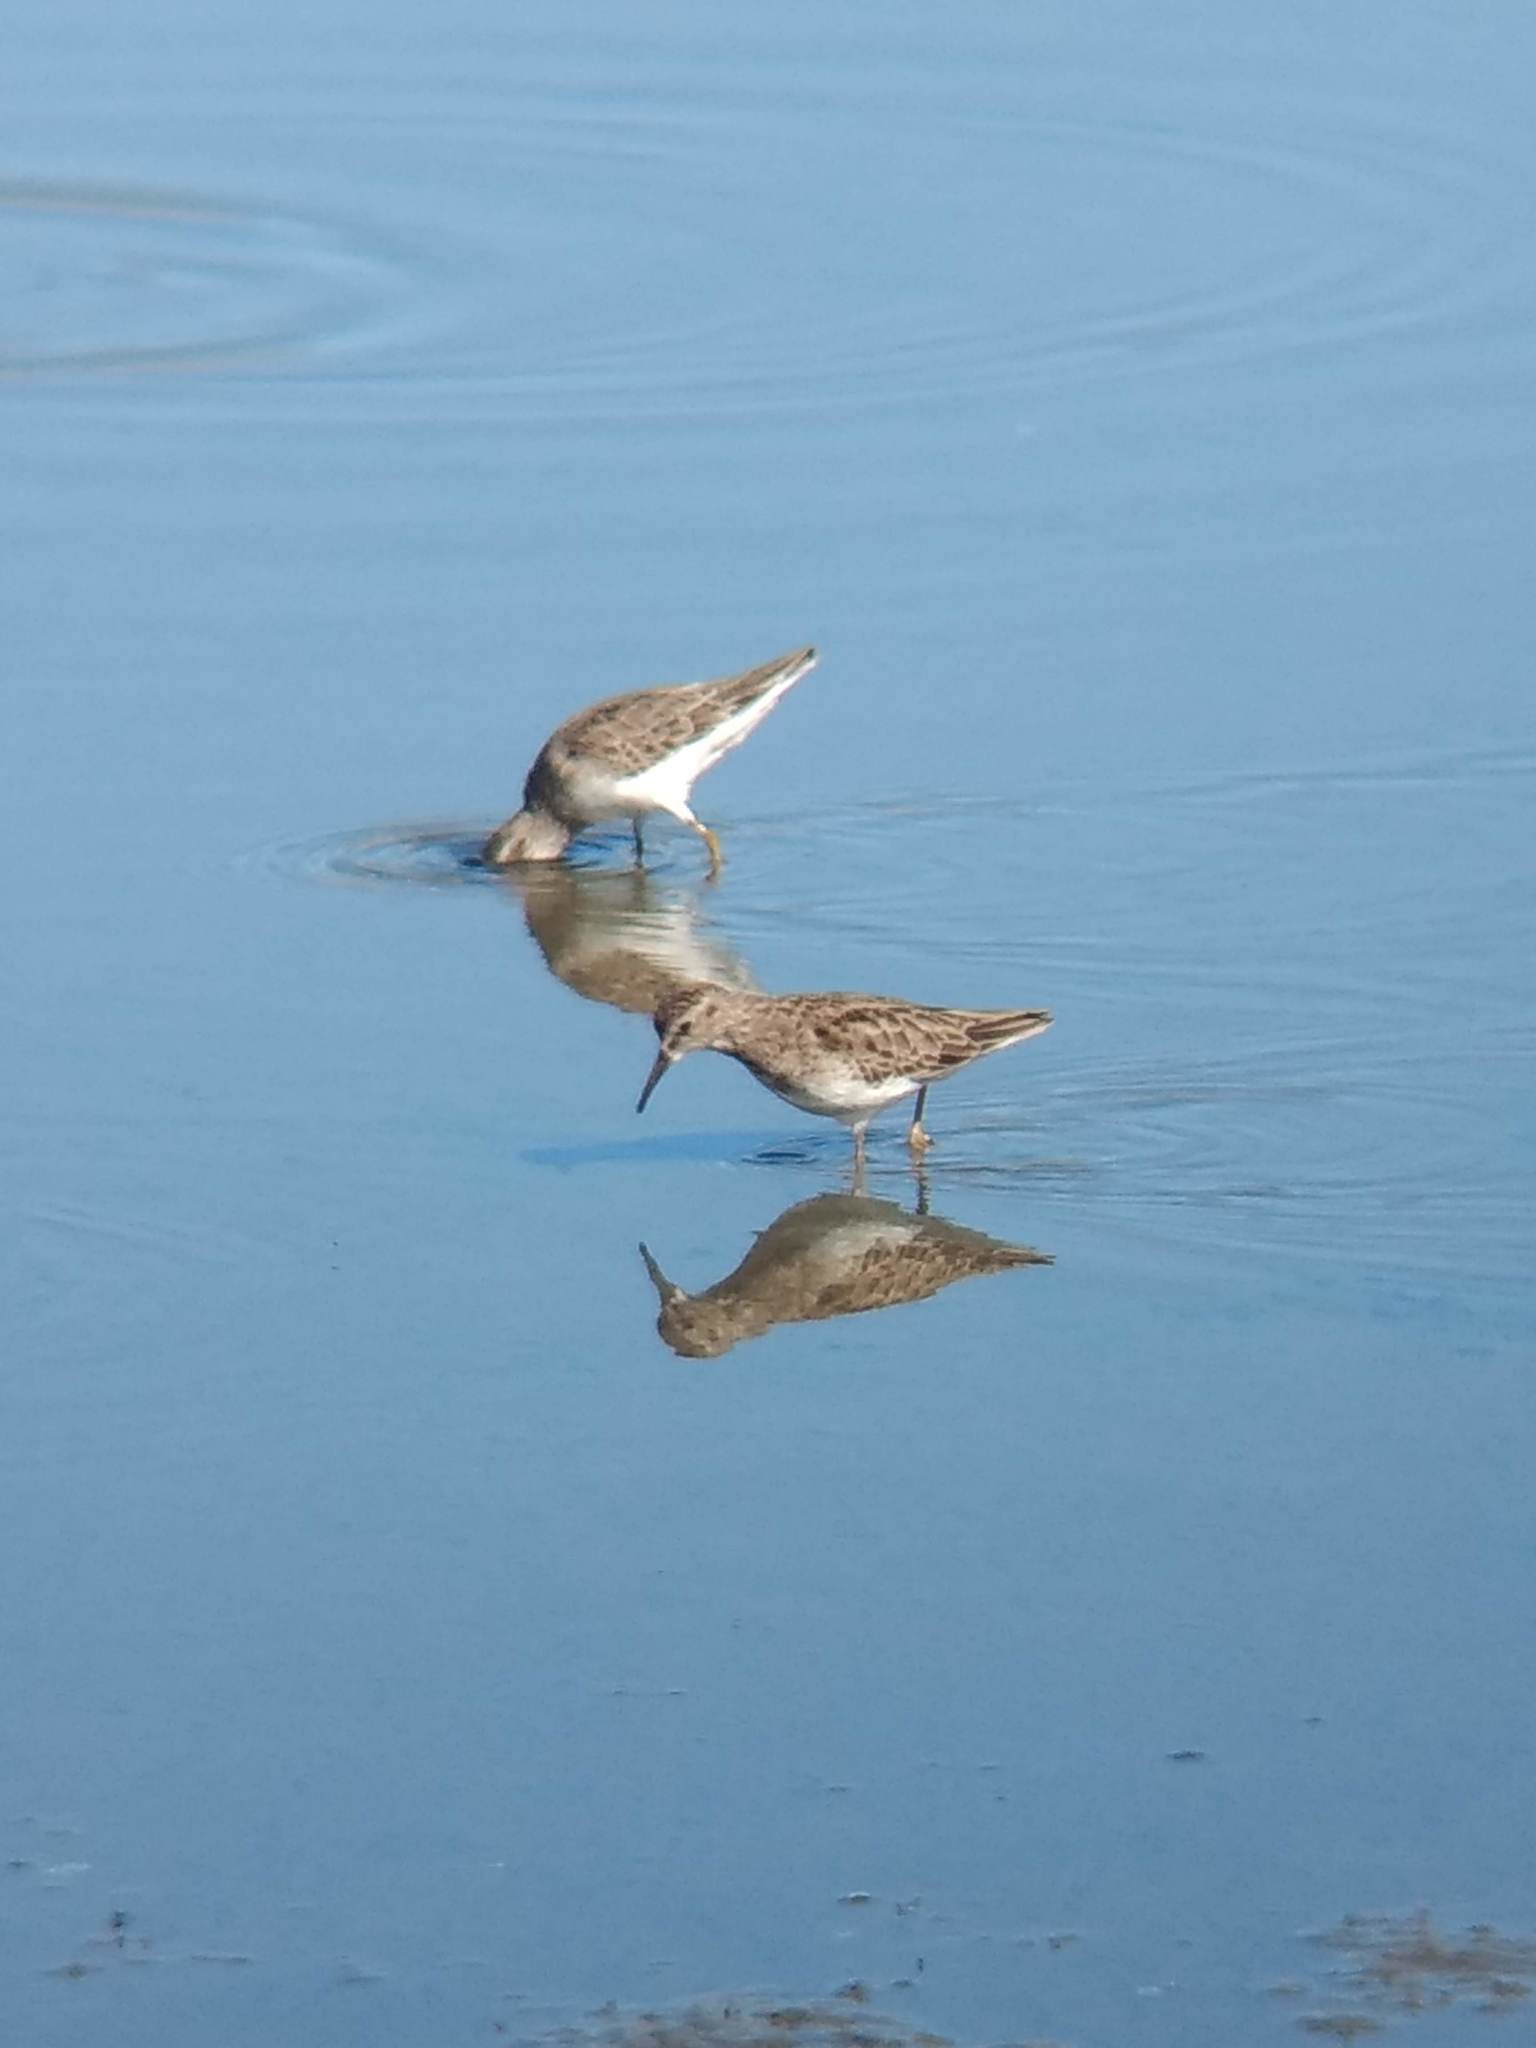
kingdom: Animalia
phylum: Chordata
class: Aves
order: Charadriiformes
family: Scolopacidae
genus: Calidris
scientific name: Calidris minutilla
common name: Least sandpiper
